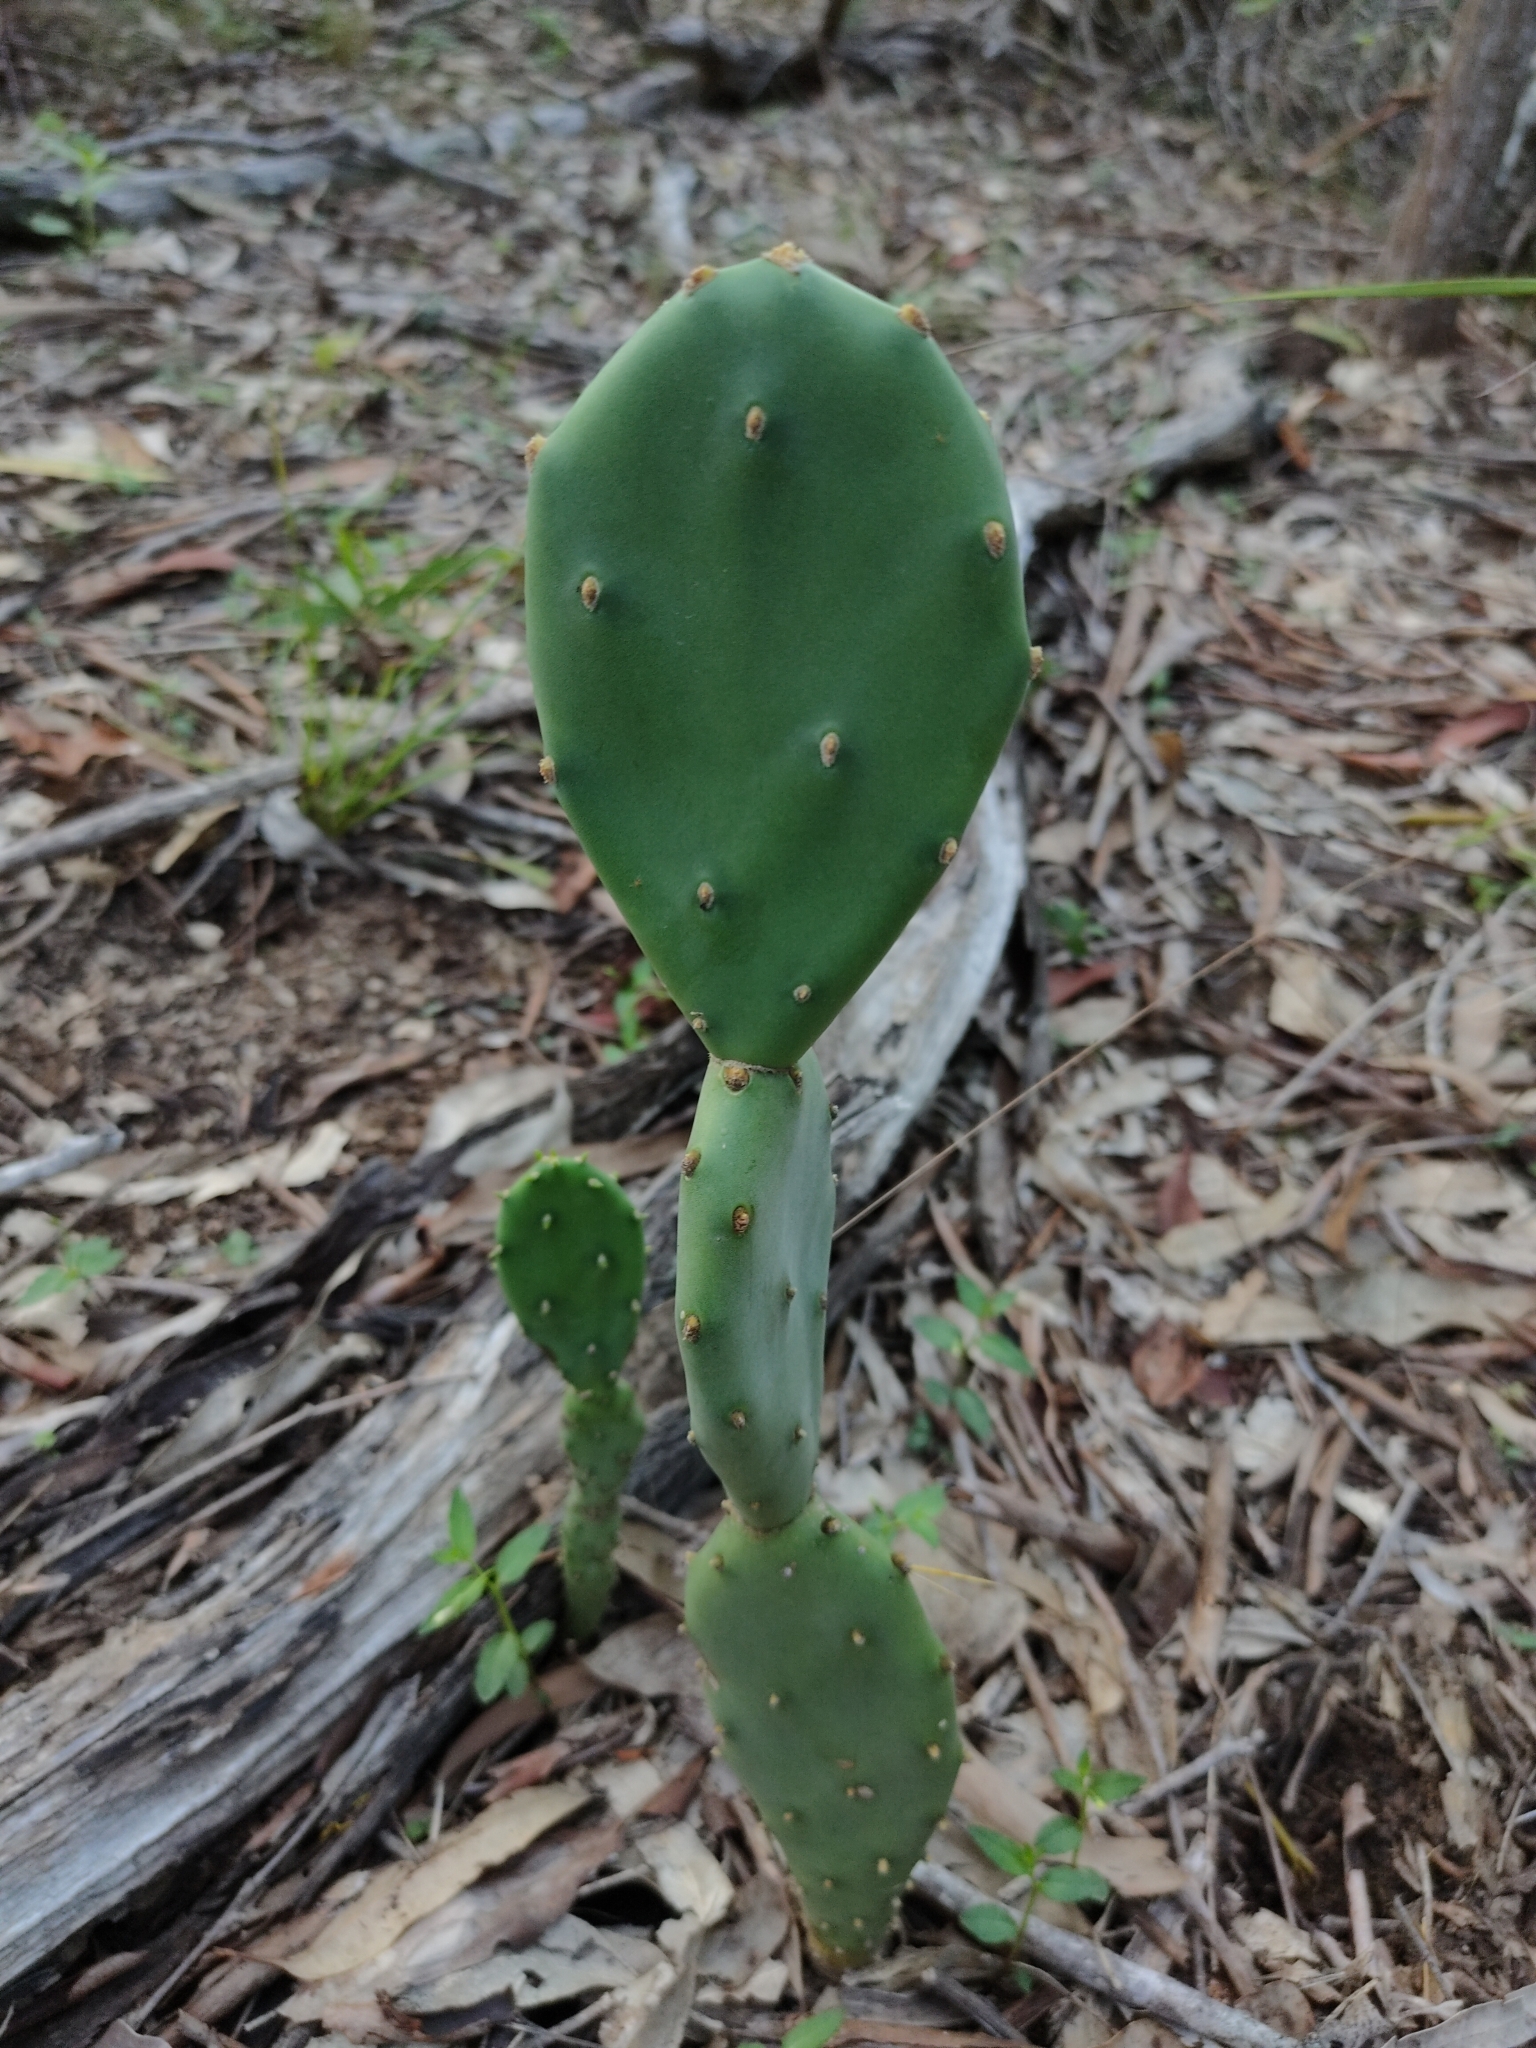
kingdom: Plantae
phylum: Tracheophyta
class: Magnoliopsida
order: Caryophyllales
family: Cactaceae
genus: Opuntia
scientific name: Opuntia stricta
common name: Erect pricklypear
